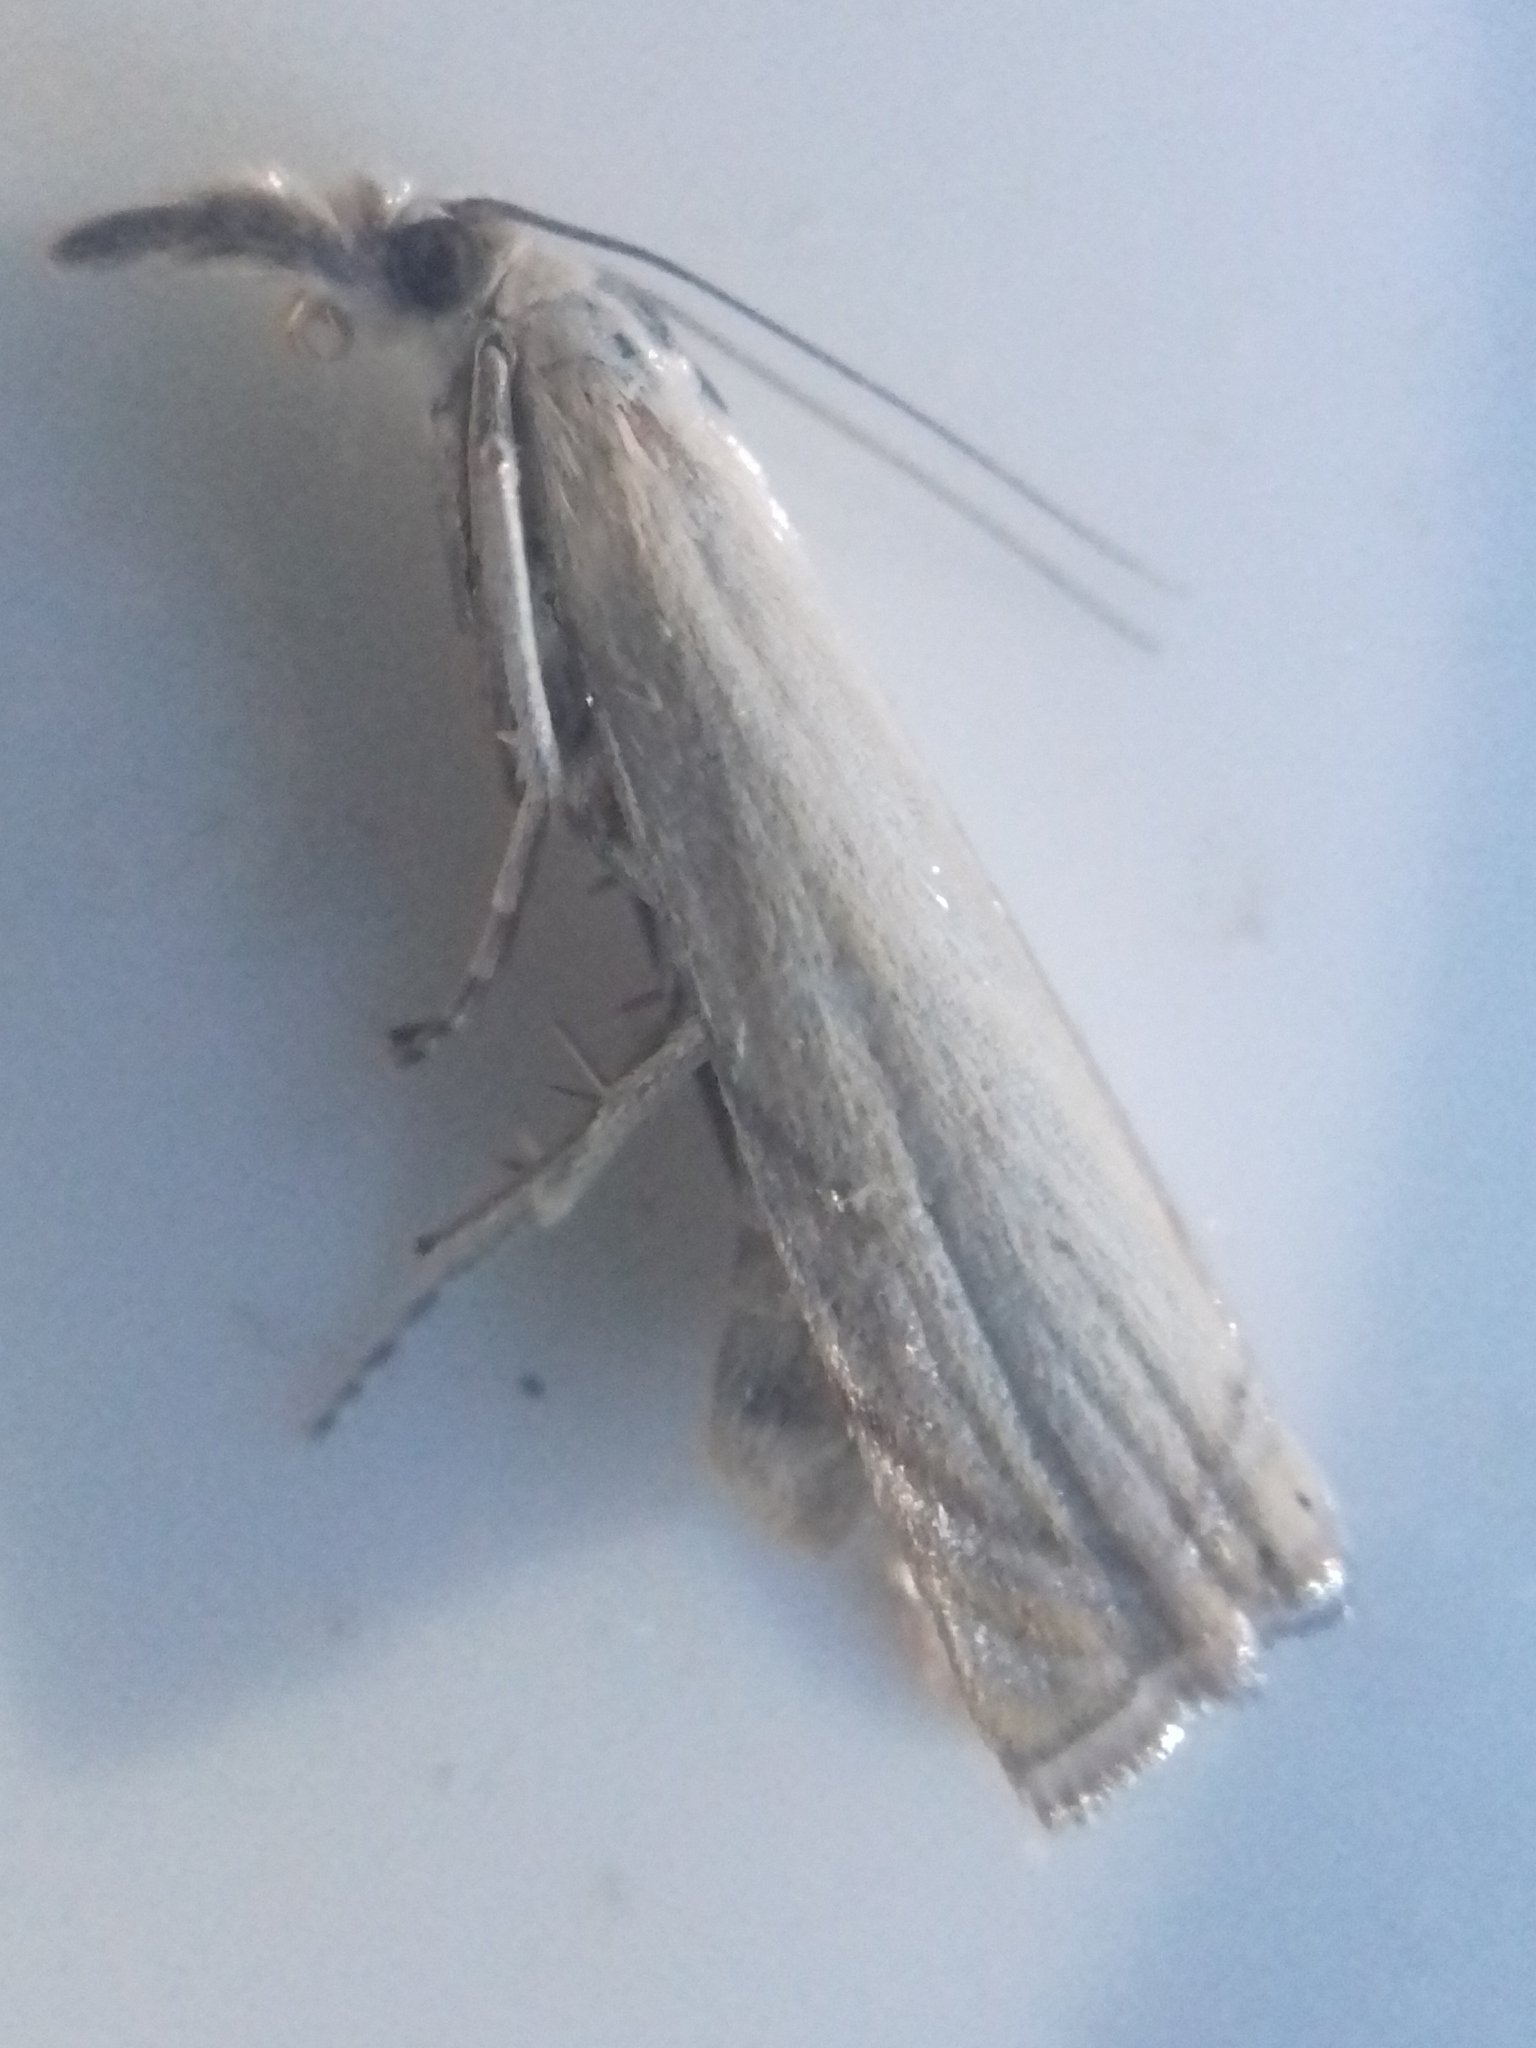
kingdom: Animalia
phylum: Arthropoda
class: Insecta
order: Lepidoptera
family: Crambidae
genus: Chrysoteuchia
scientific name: Chrysoteuchia culmella
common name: Garden grass-veneer
